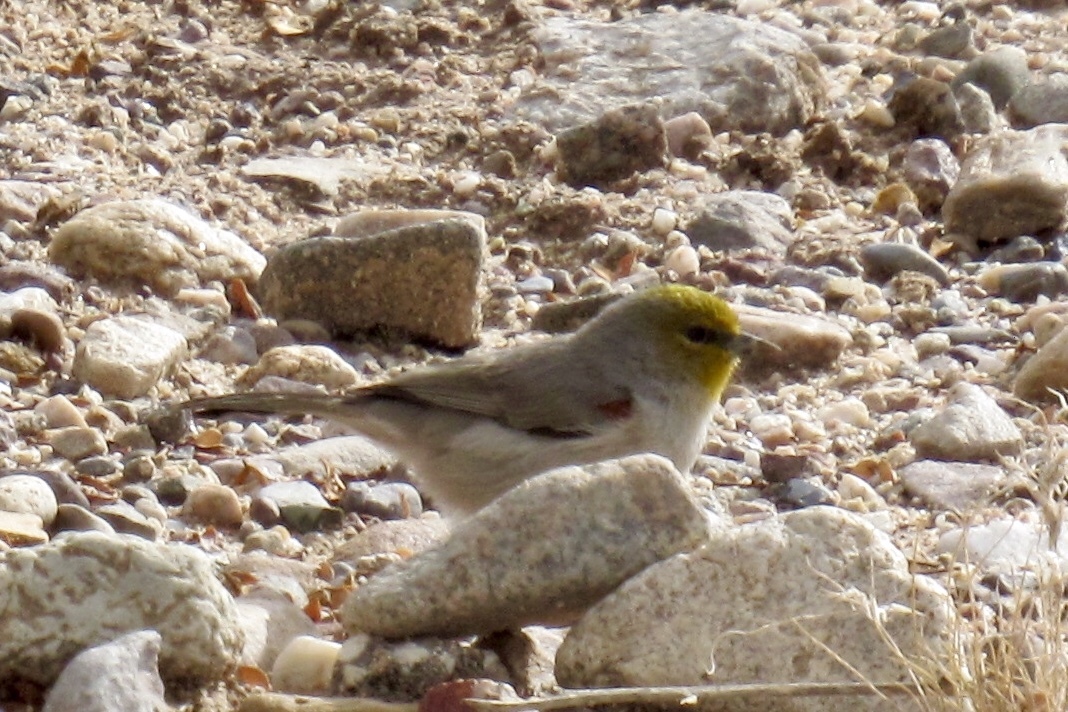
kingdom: Animalia
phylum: Chordata
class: Aves
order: Passeriformes
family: Remizidae
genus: Auriparus
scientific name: Auriparus flaviceps
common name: Verdin
